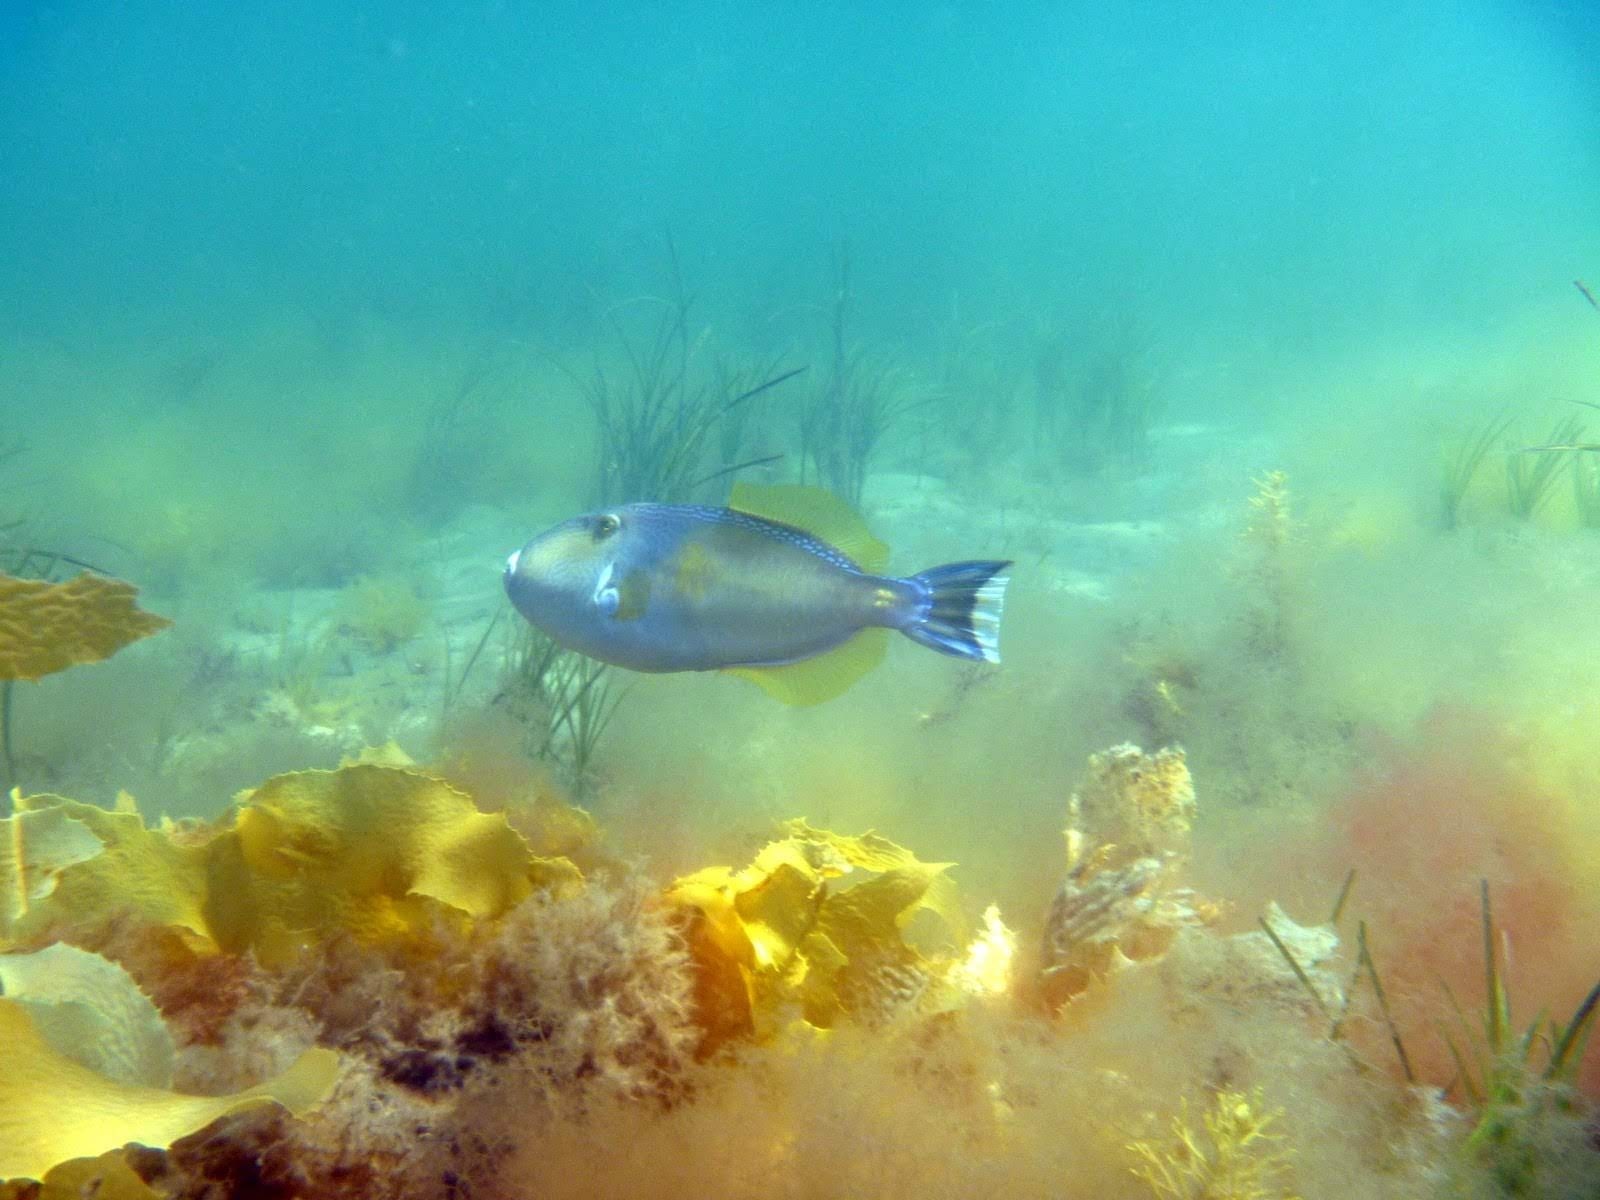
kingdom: Animalia
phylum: Chordata
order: Tetraodontiformes
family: Monacanthidae
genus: Meuschenia
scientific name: Meuschenia freycineti
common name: Freycinet's leatherjacket
